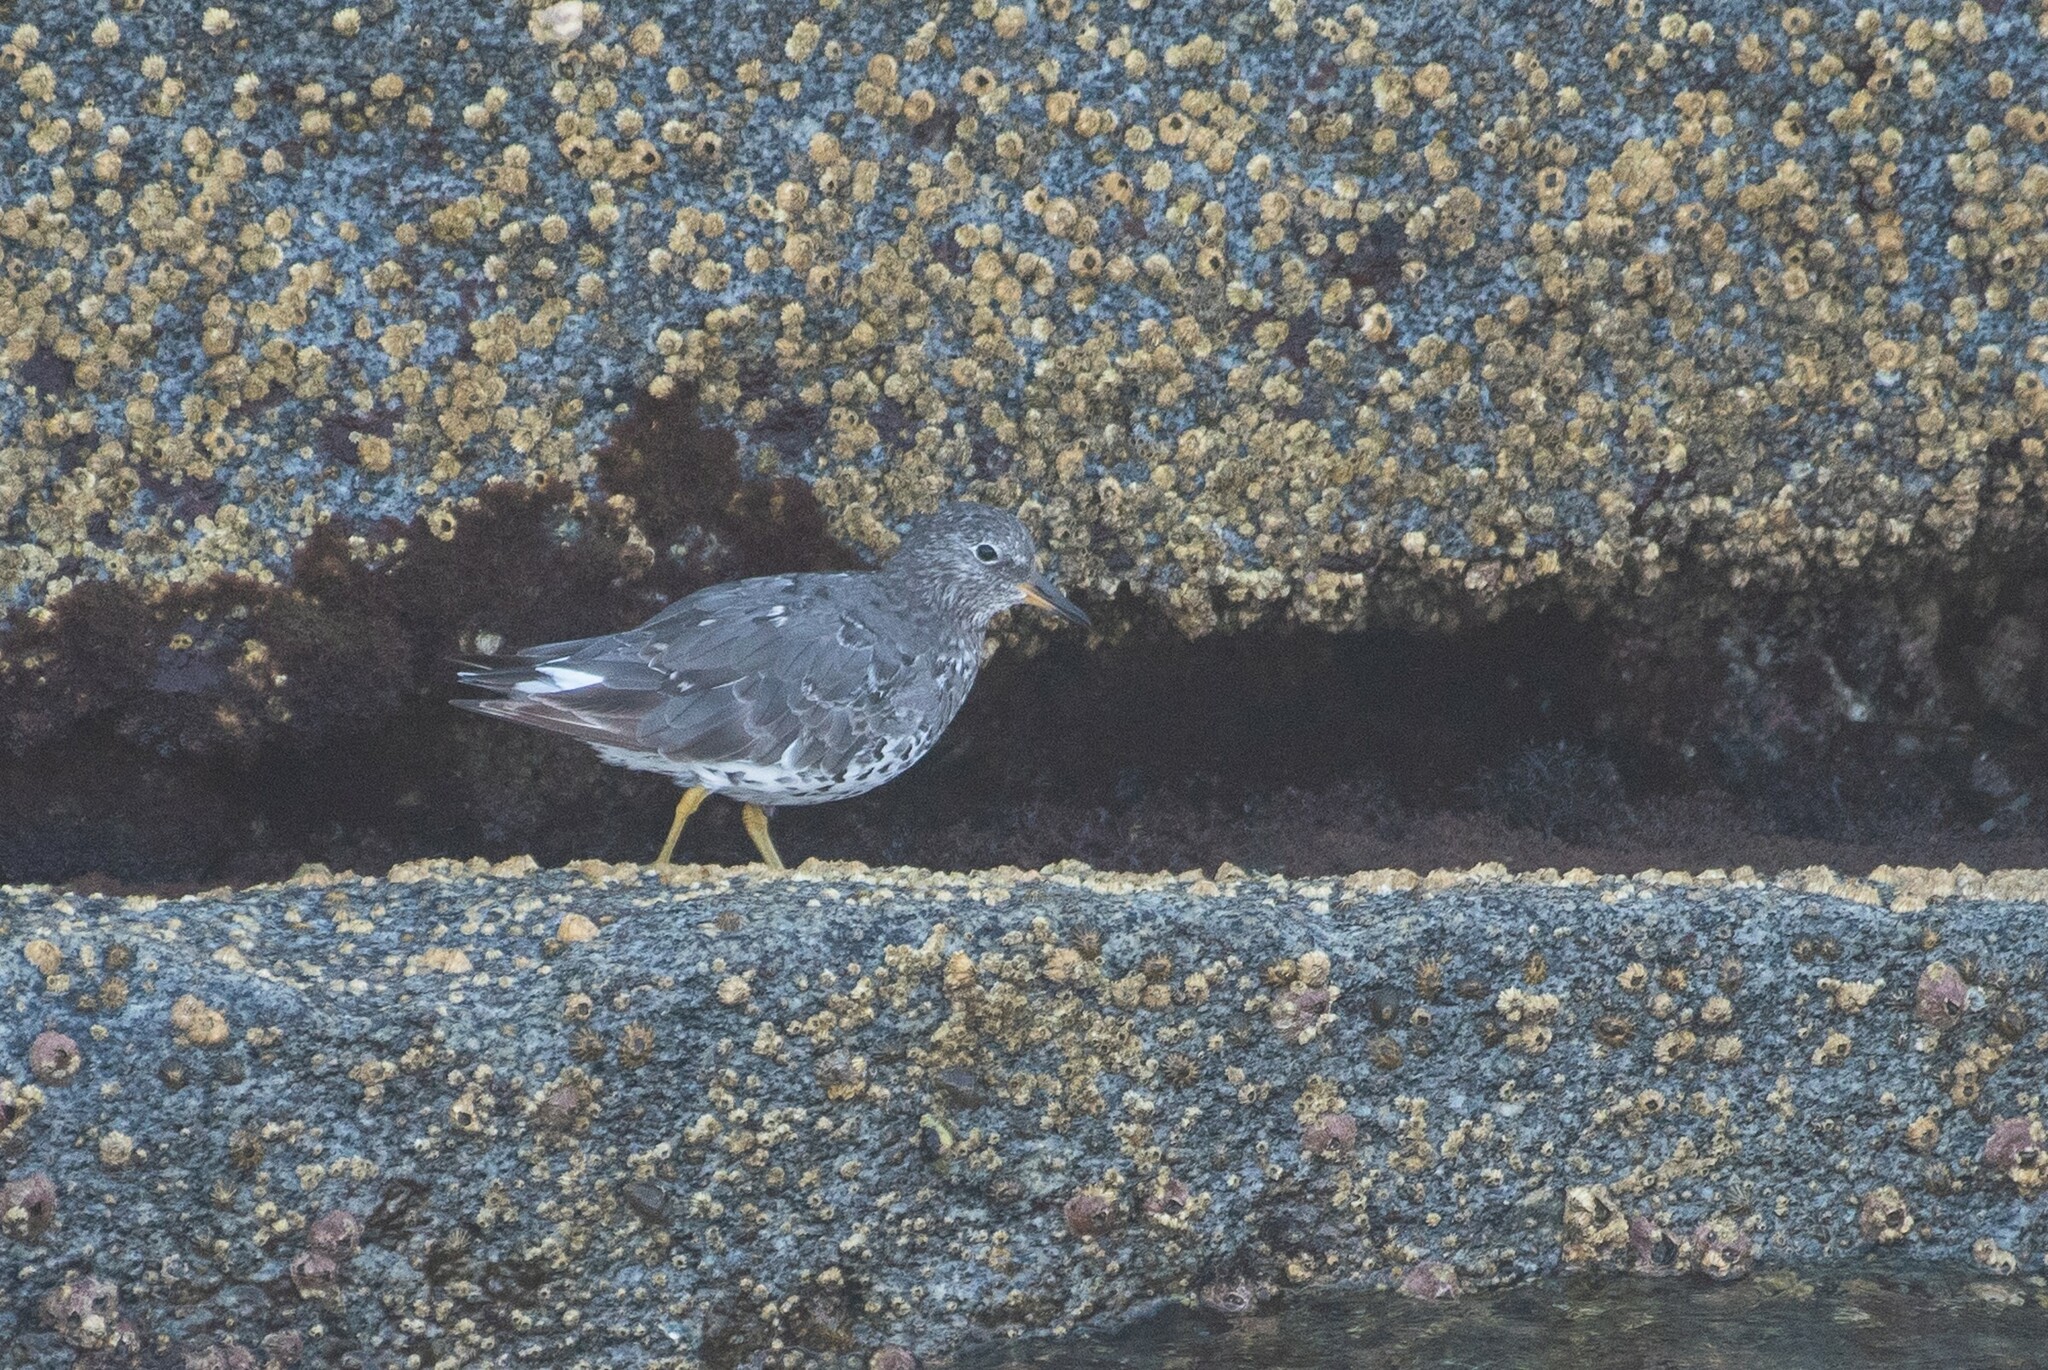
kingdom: Animalia
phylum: Chordata
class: Aves
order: Charadriiformes
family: Scolopacidae
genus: Calidris
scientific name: Calidris virgata
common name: Surfbird
